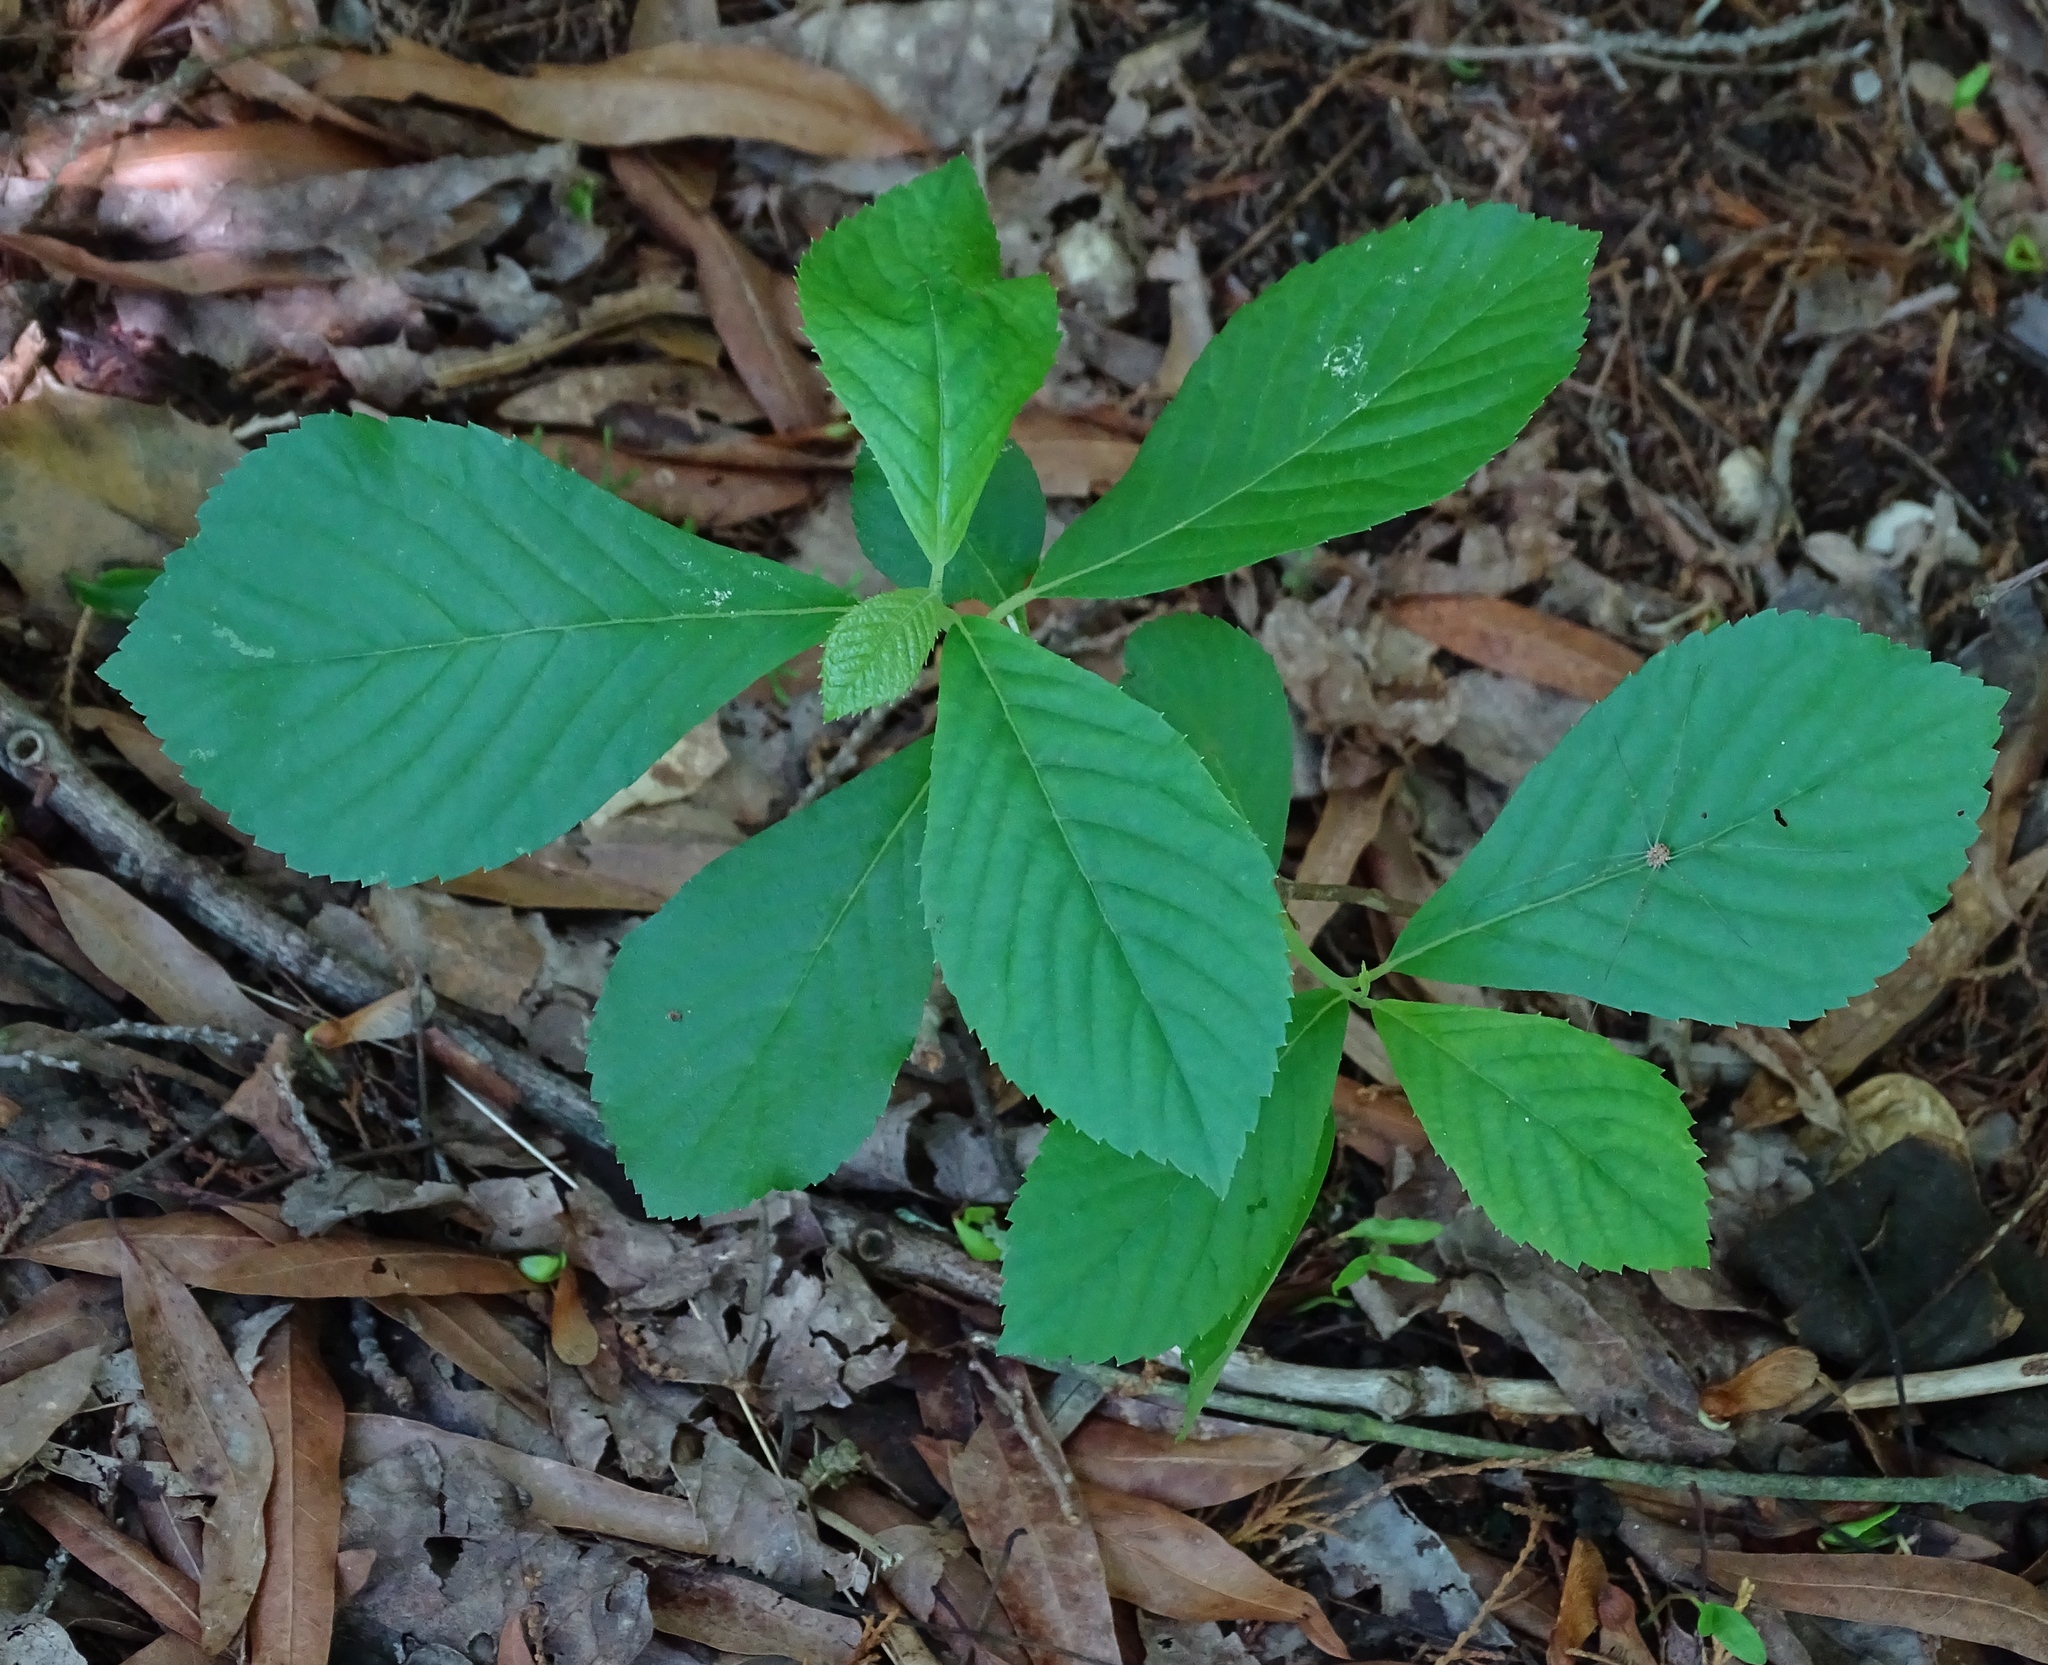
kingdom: Plantae
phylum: Tracheophyta
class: Magnoliopsida
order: Ericales
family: Clethraceae
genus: Clethra
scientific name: Clethra alnifolia
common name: Sweet pepperbush
